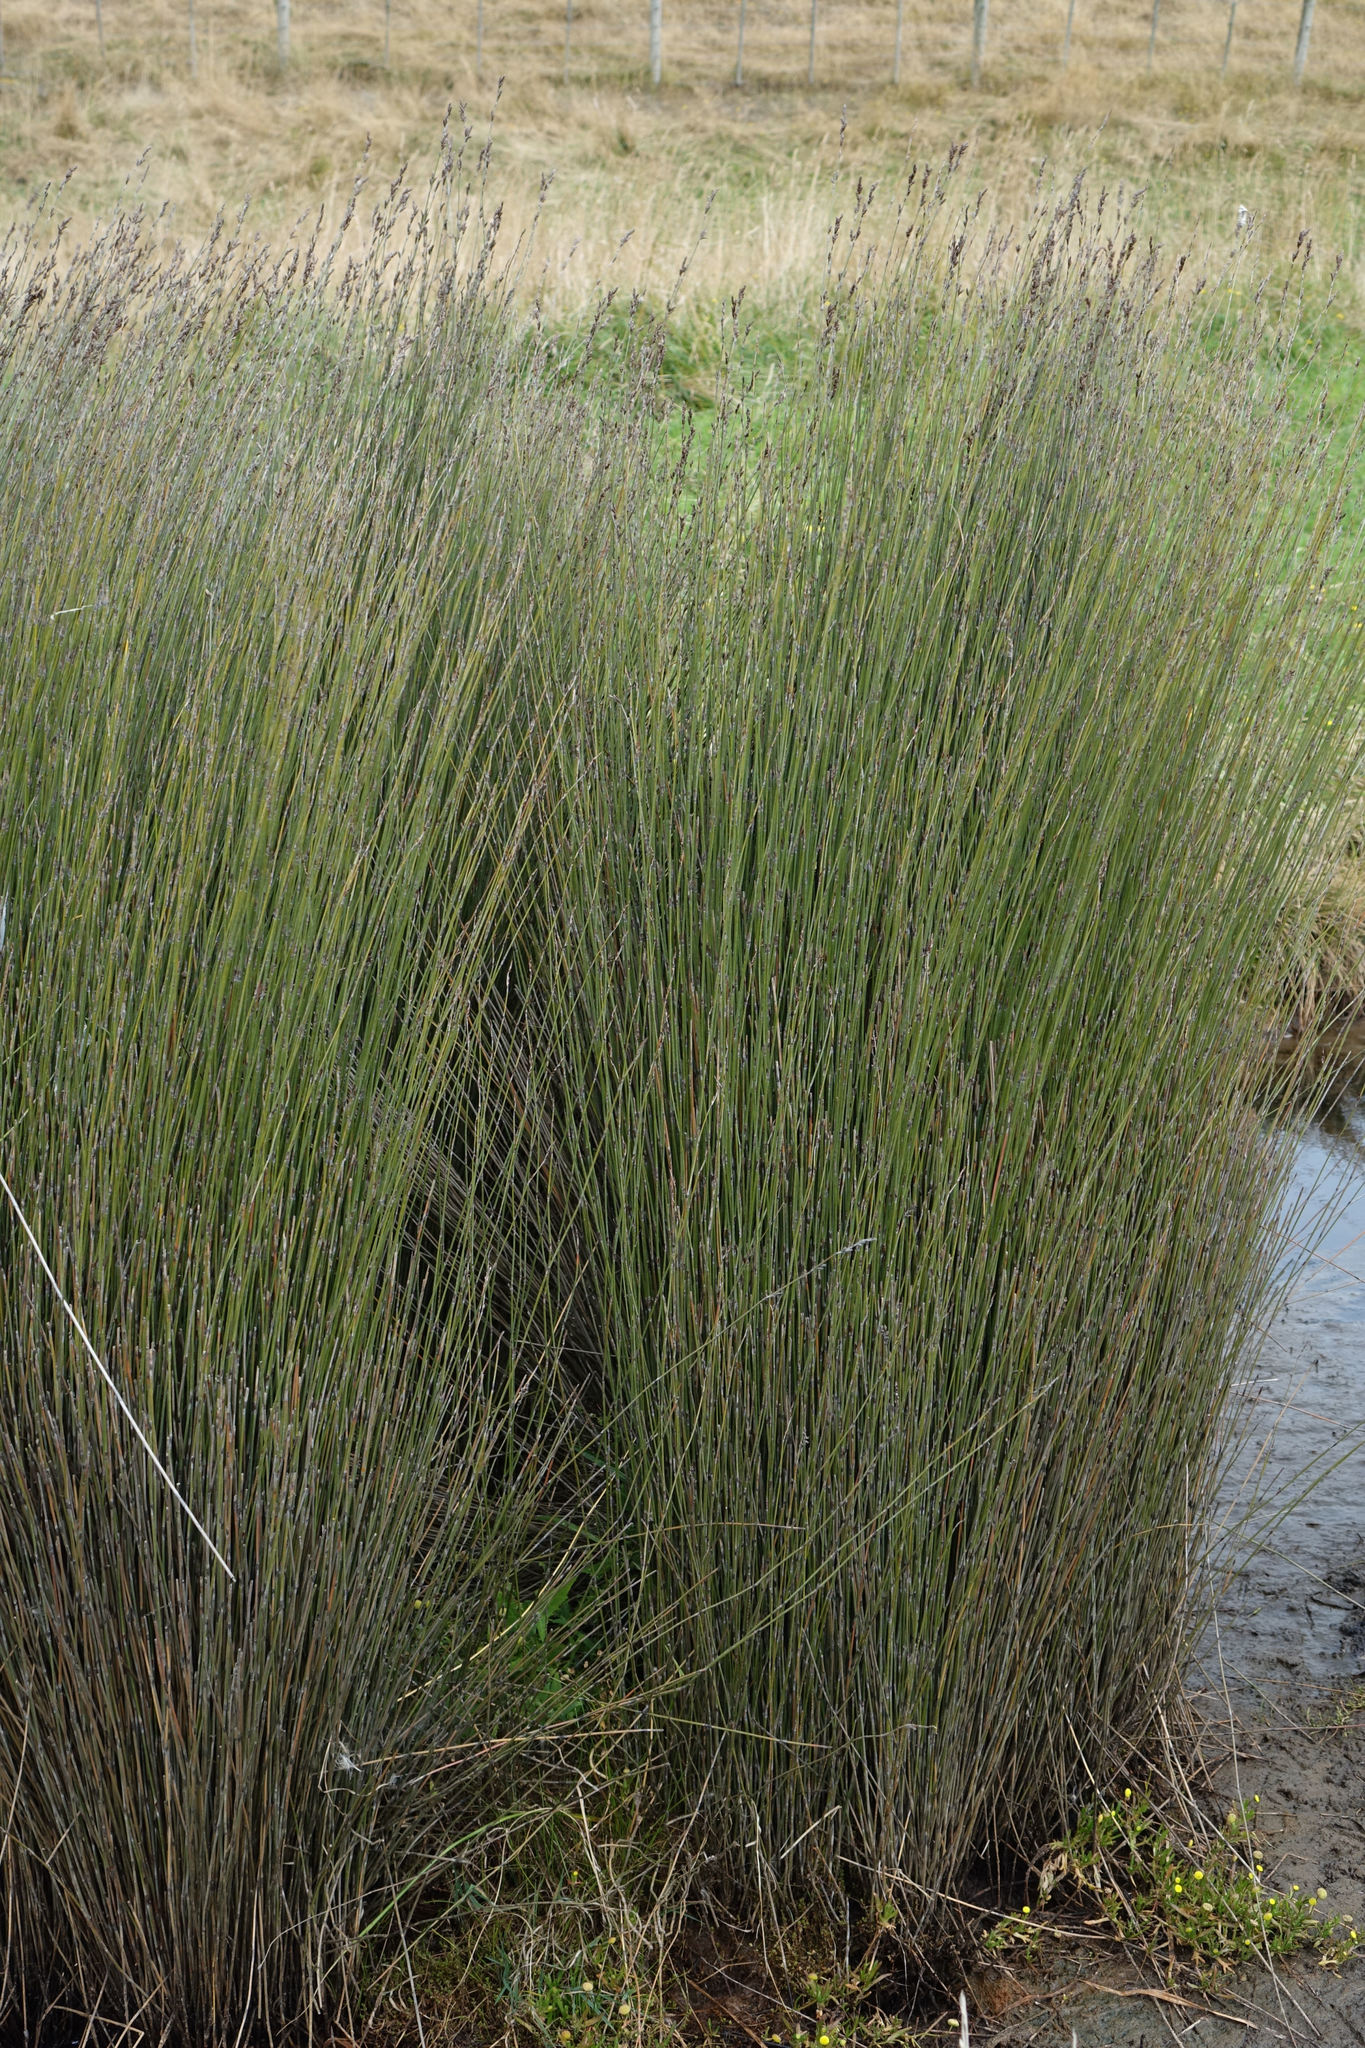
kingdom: Plantae
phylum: Tracheophyta
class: Liliopsida
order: Poales
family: Restionaceae
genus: Apodasmia
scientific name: Apodasmia similis
